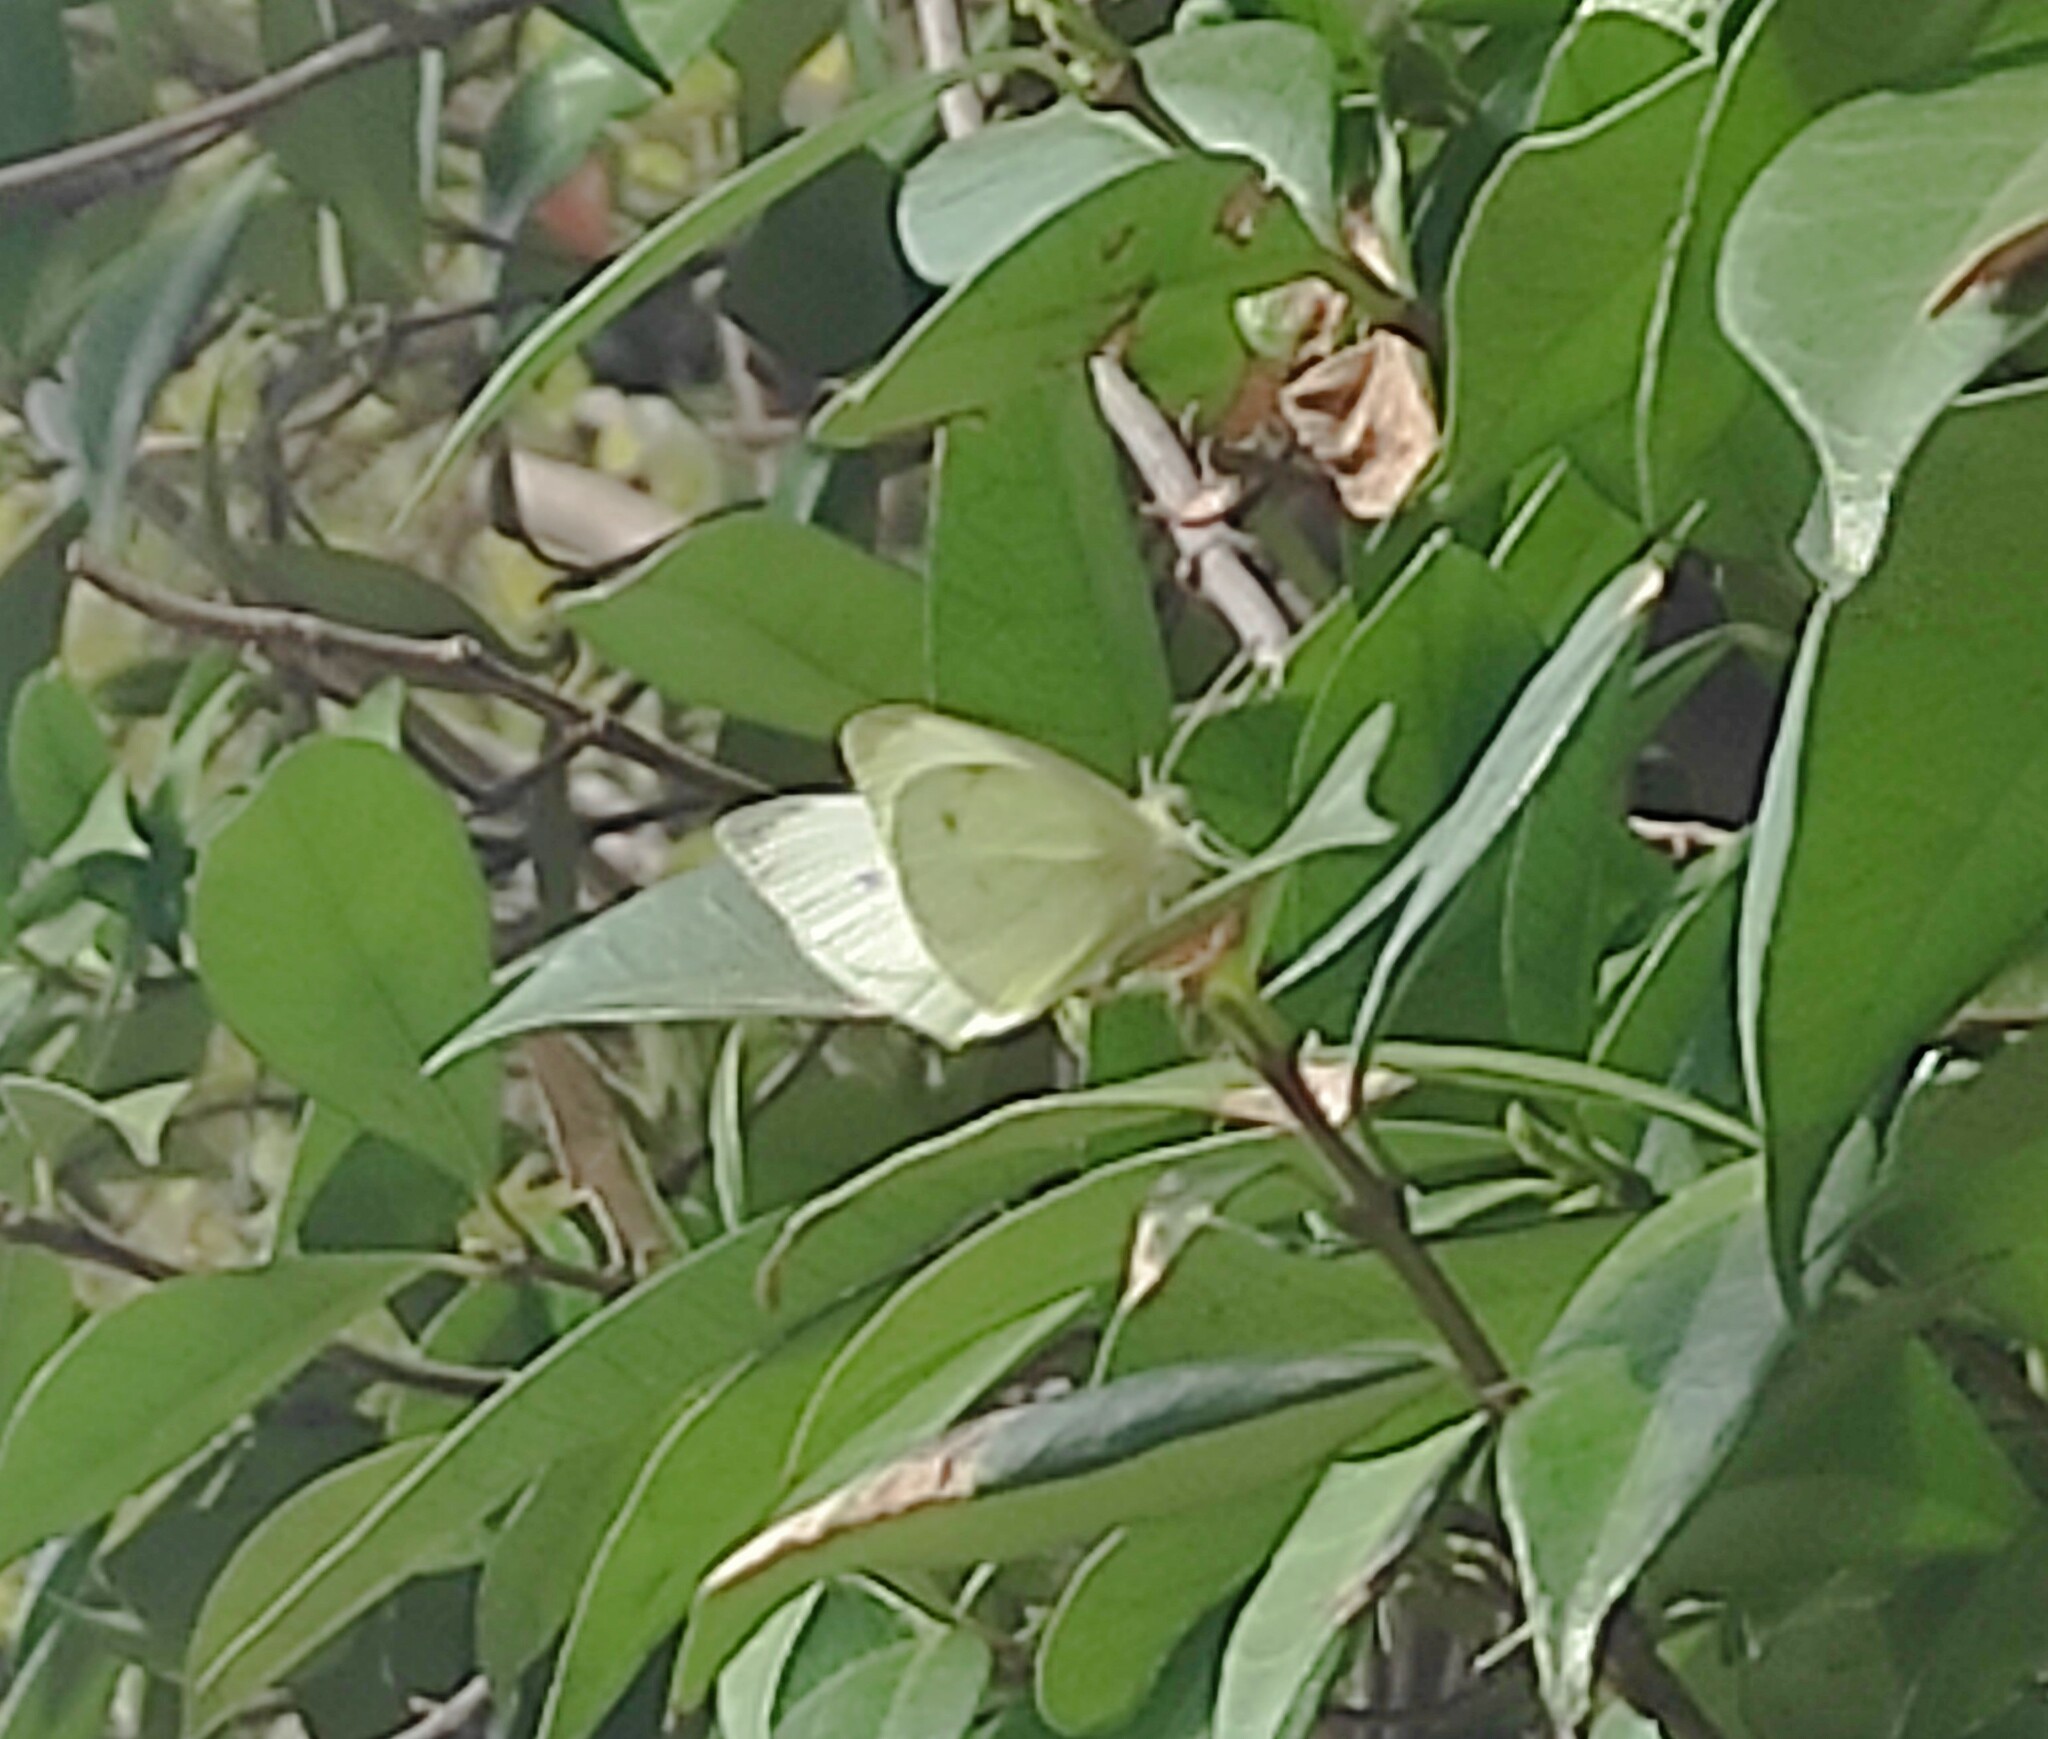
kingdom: Animalia
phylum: Arthropoda
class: Insecta
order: Lepidoptera
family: Pieridae
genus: Pieris
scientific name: Pieris rapae
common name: Small white
